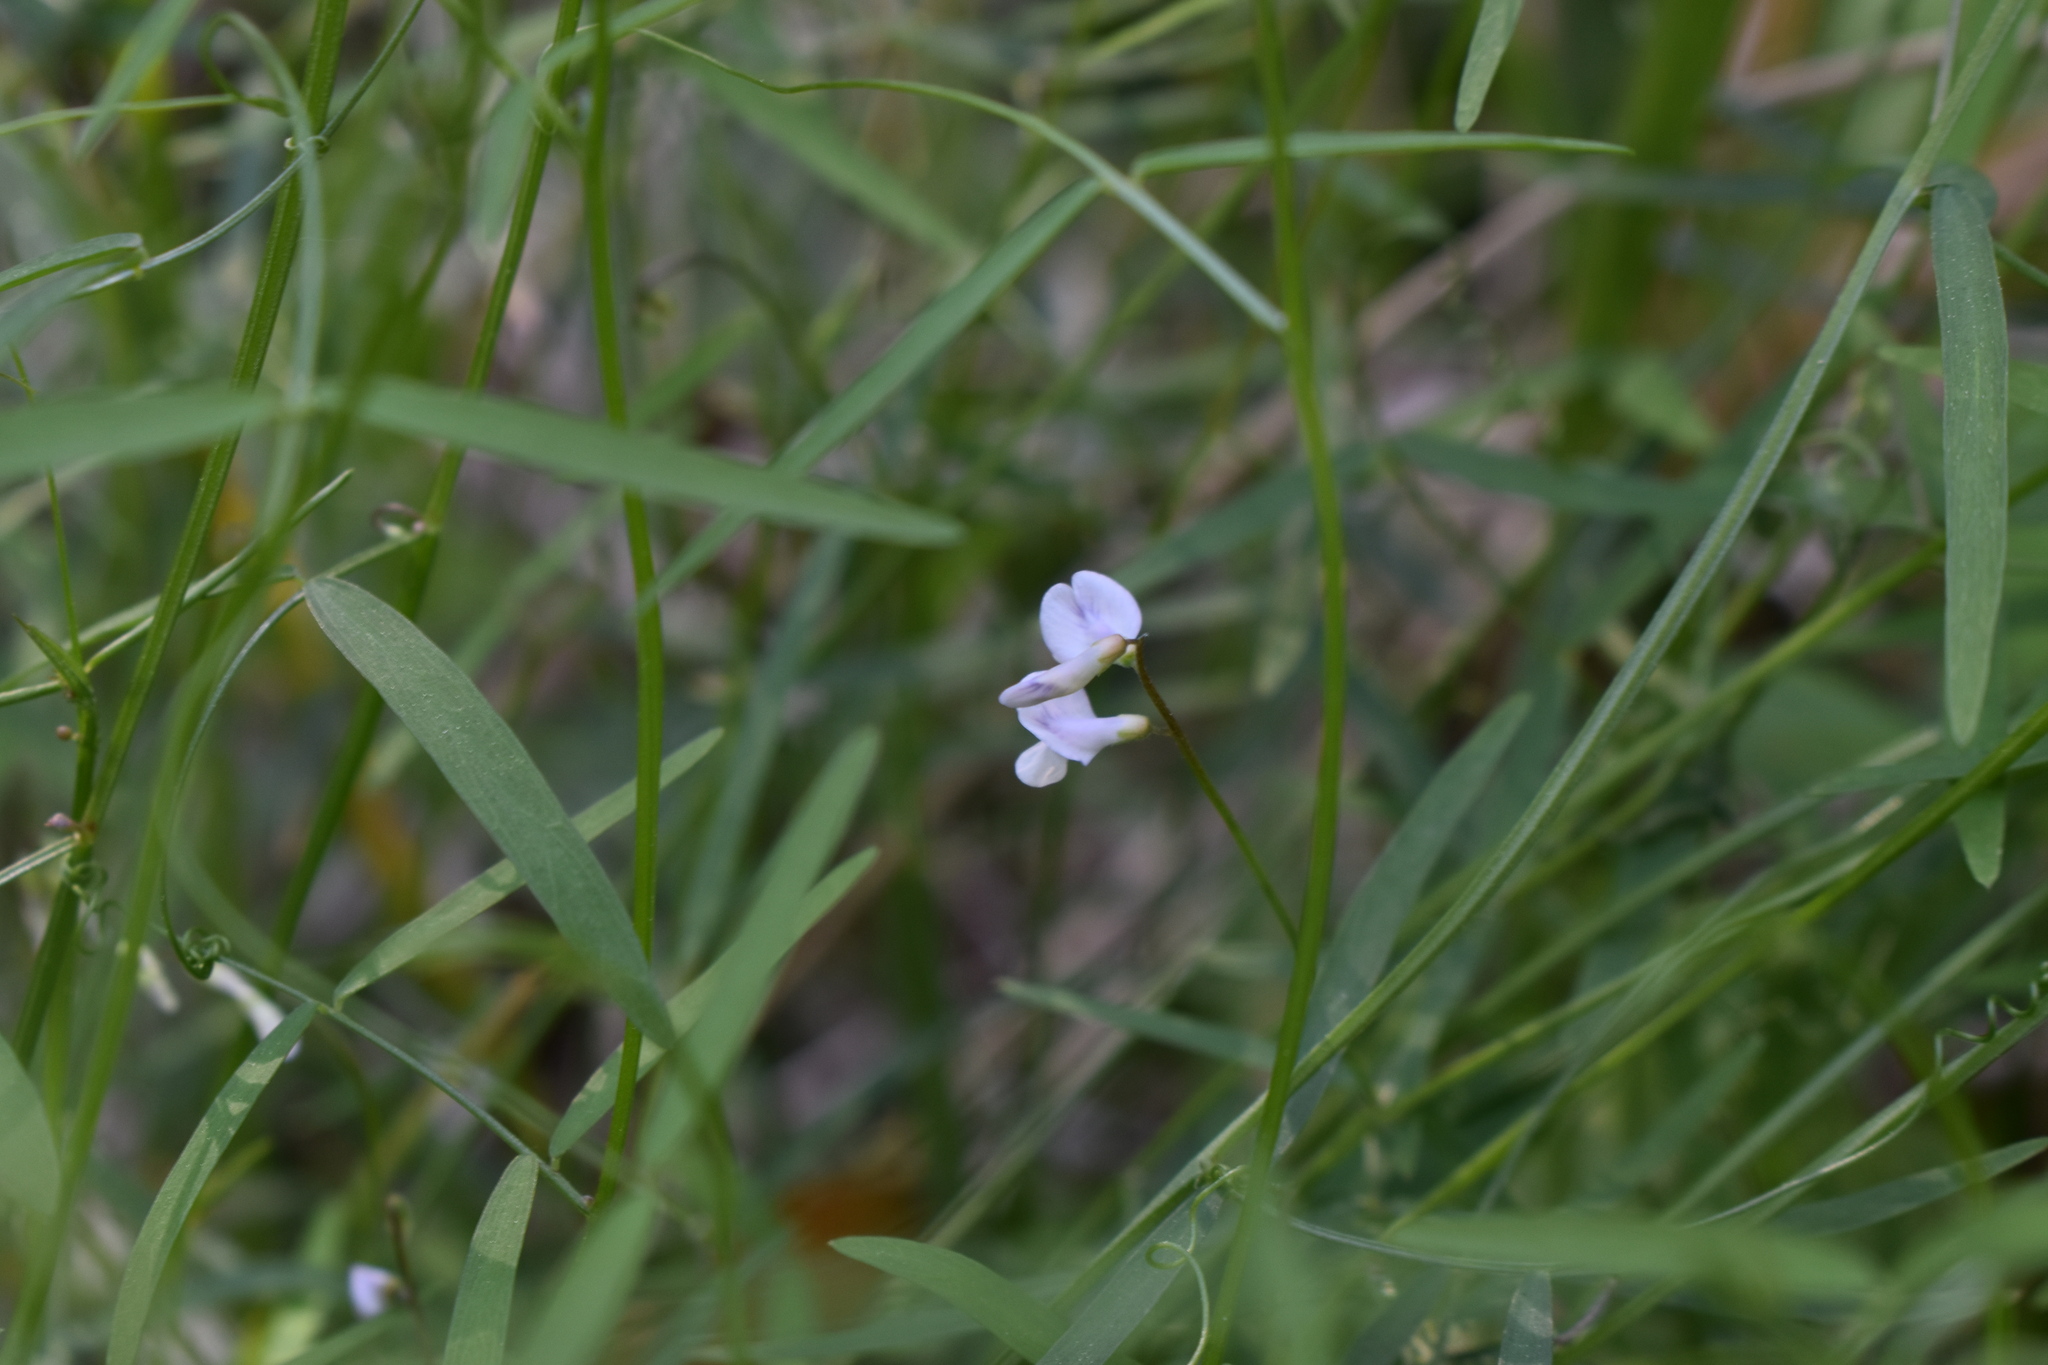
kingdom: Plantae
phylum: Tracheophyta
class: Magnoliopsida
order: Fabales
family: Fabaceae
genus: Vicia
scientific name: Vicia acutifolia
